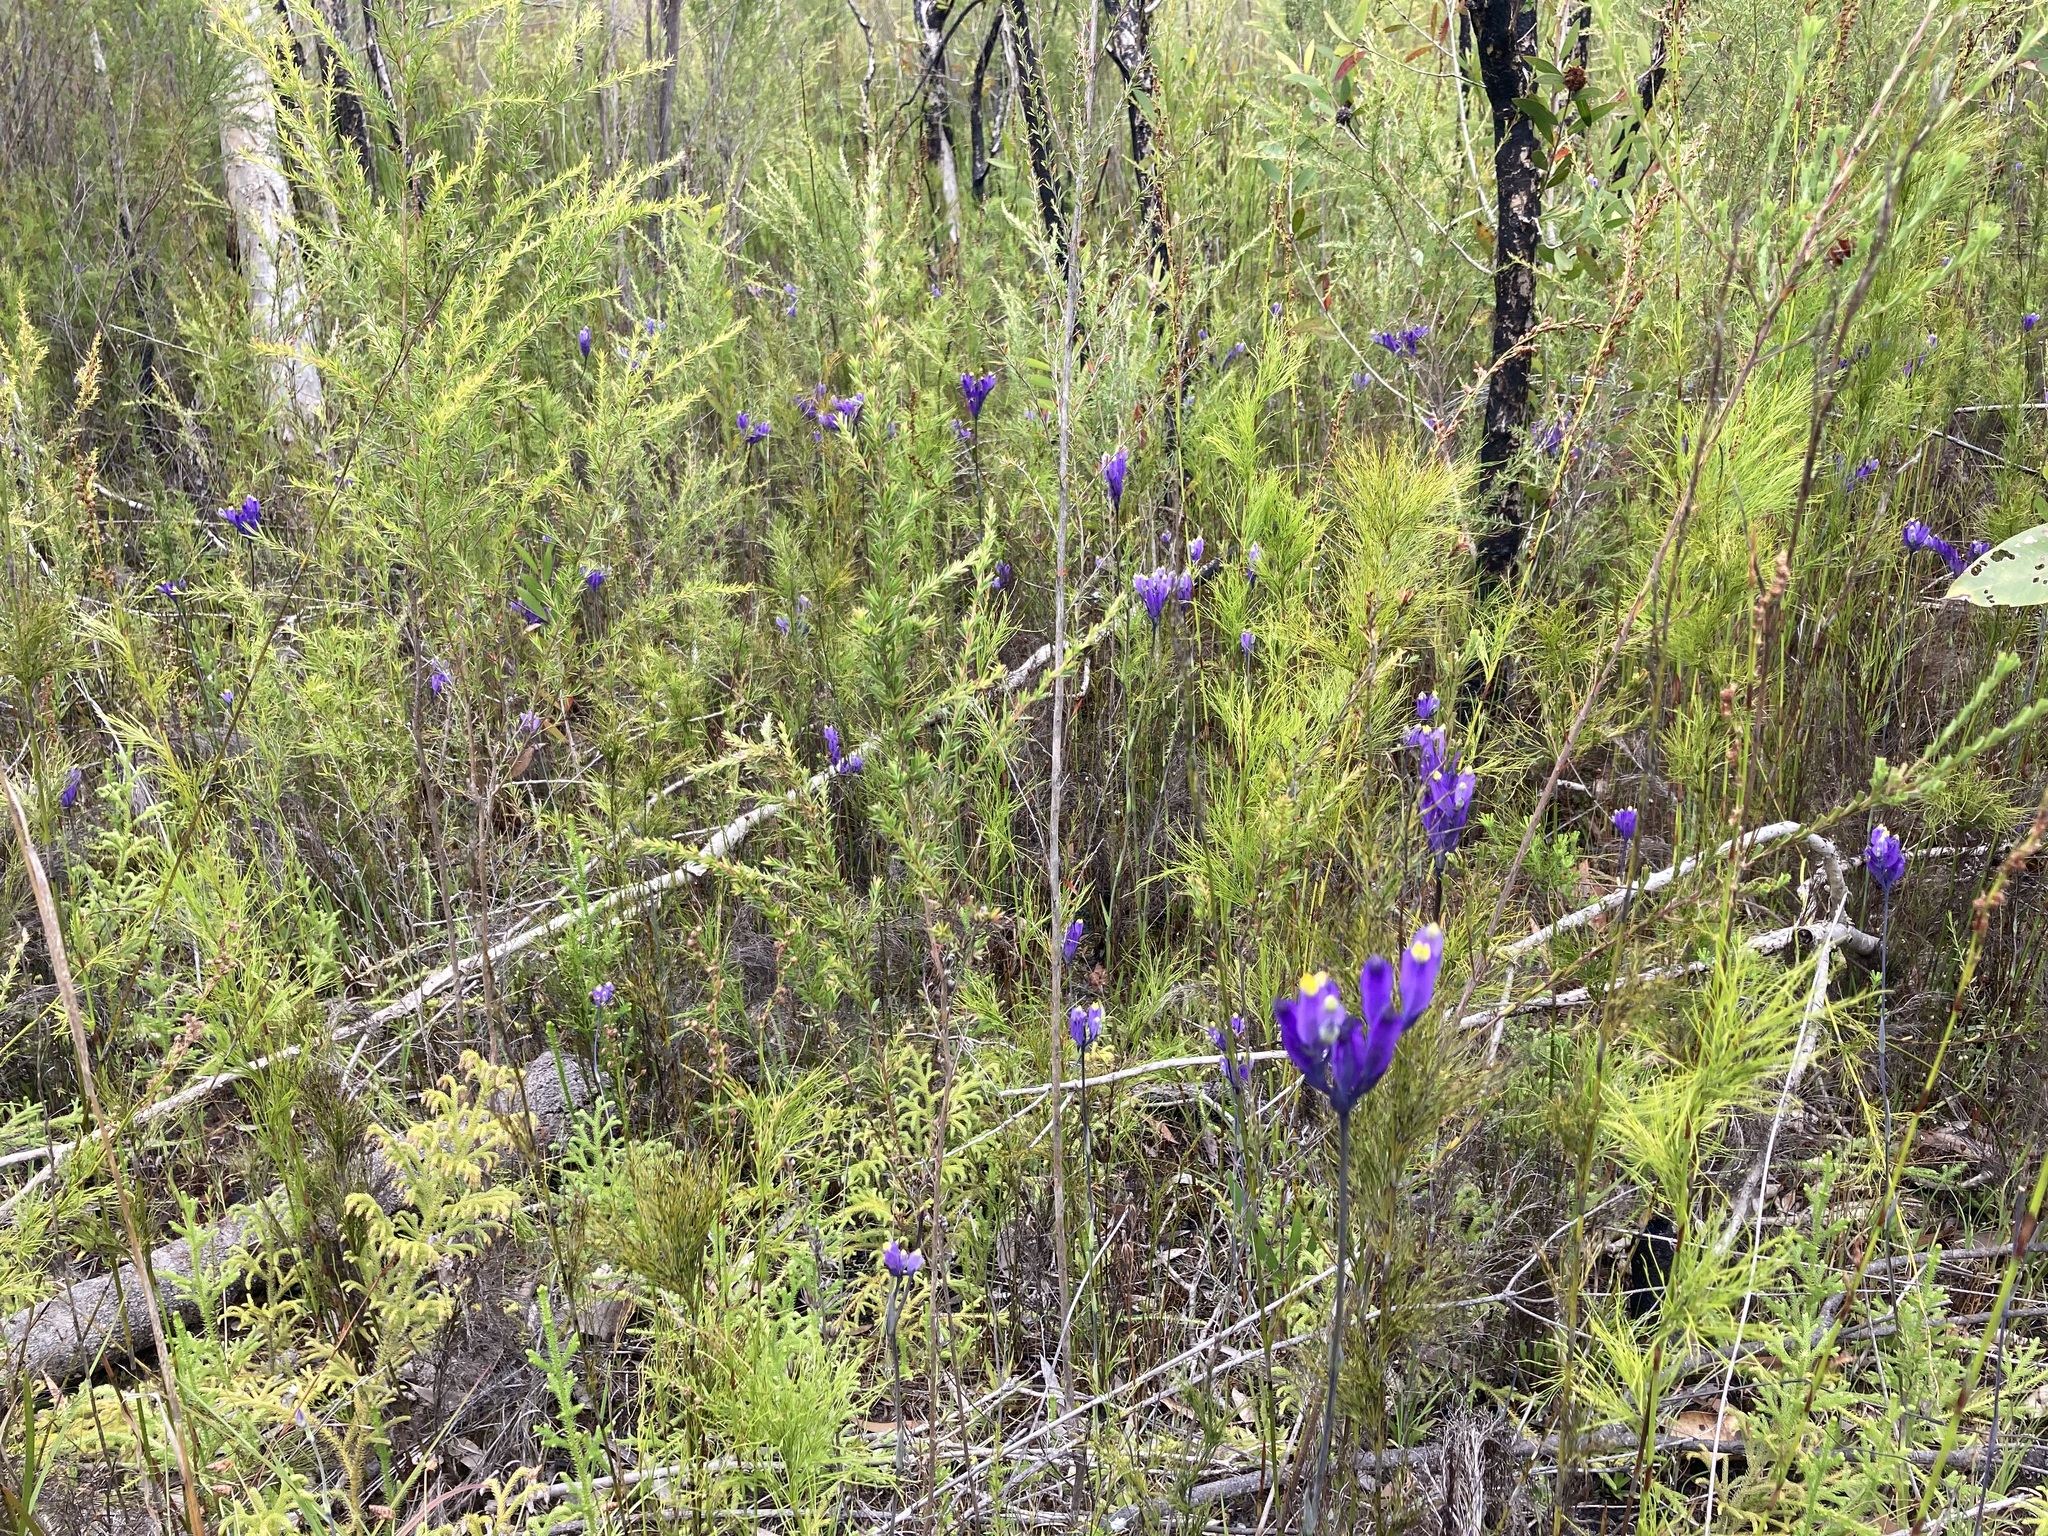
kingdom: Plantae
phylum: Tracheophyta
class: Liliopsida
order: Dioscoreales
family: Burmanniaceae
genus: Burmannia
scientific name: Burmannia disticha
